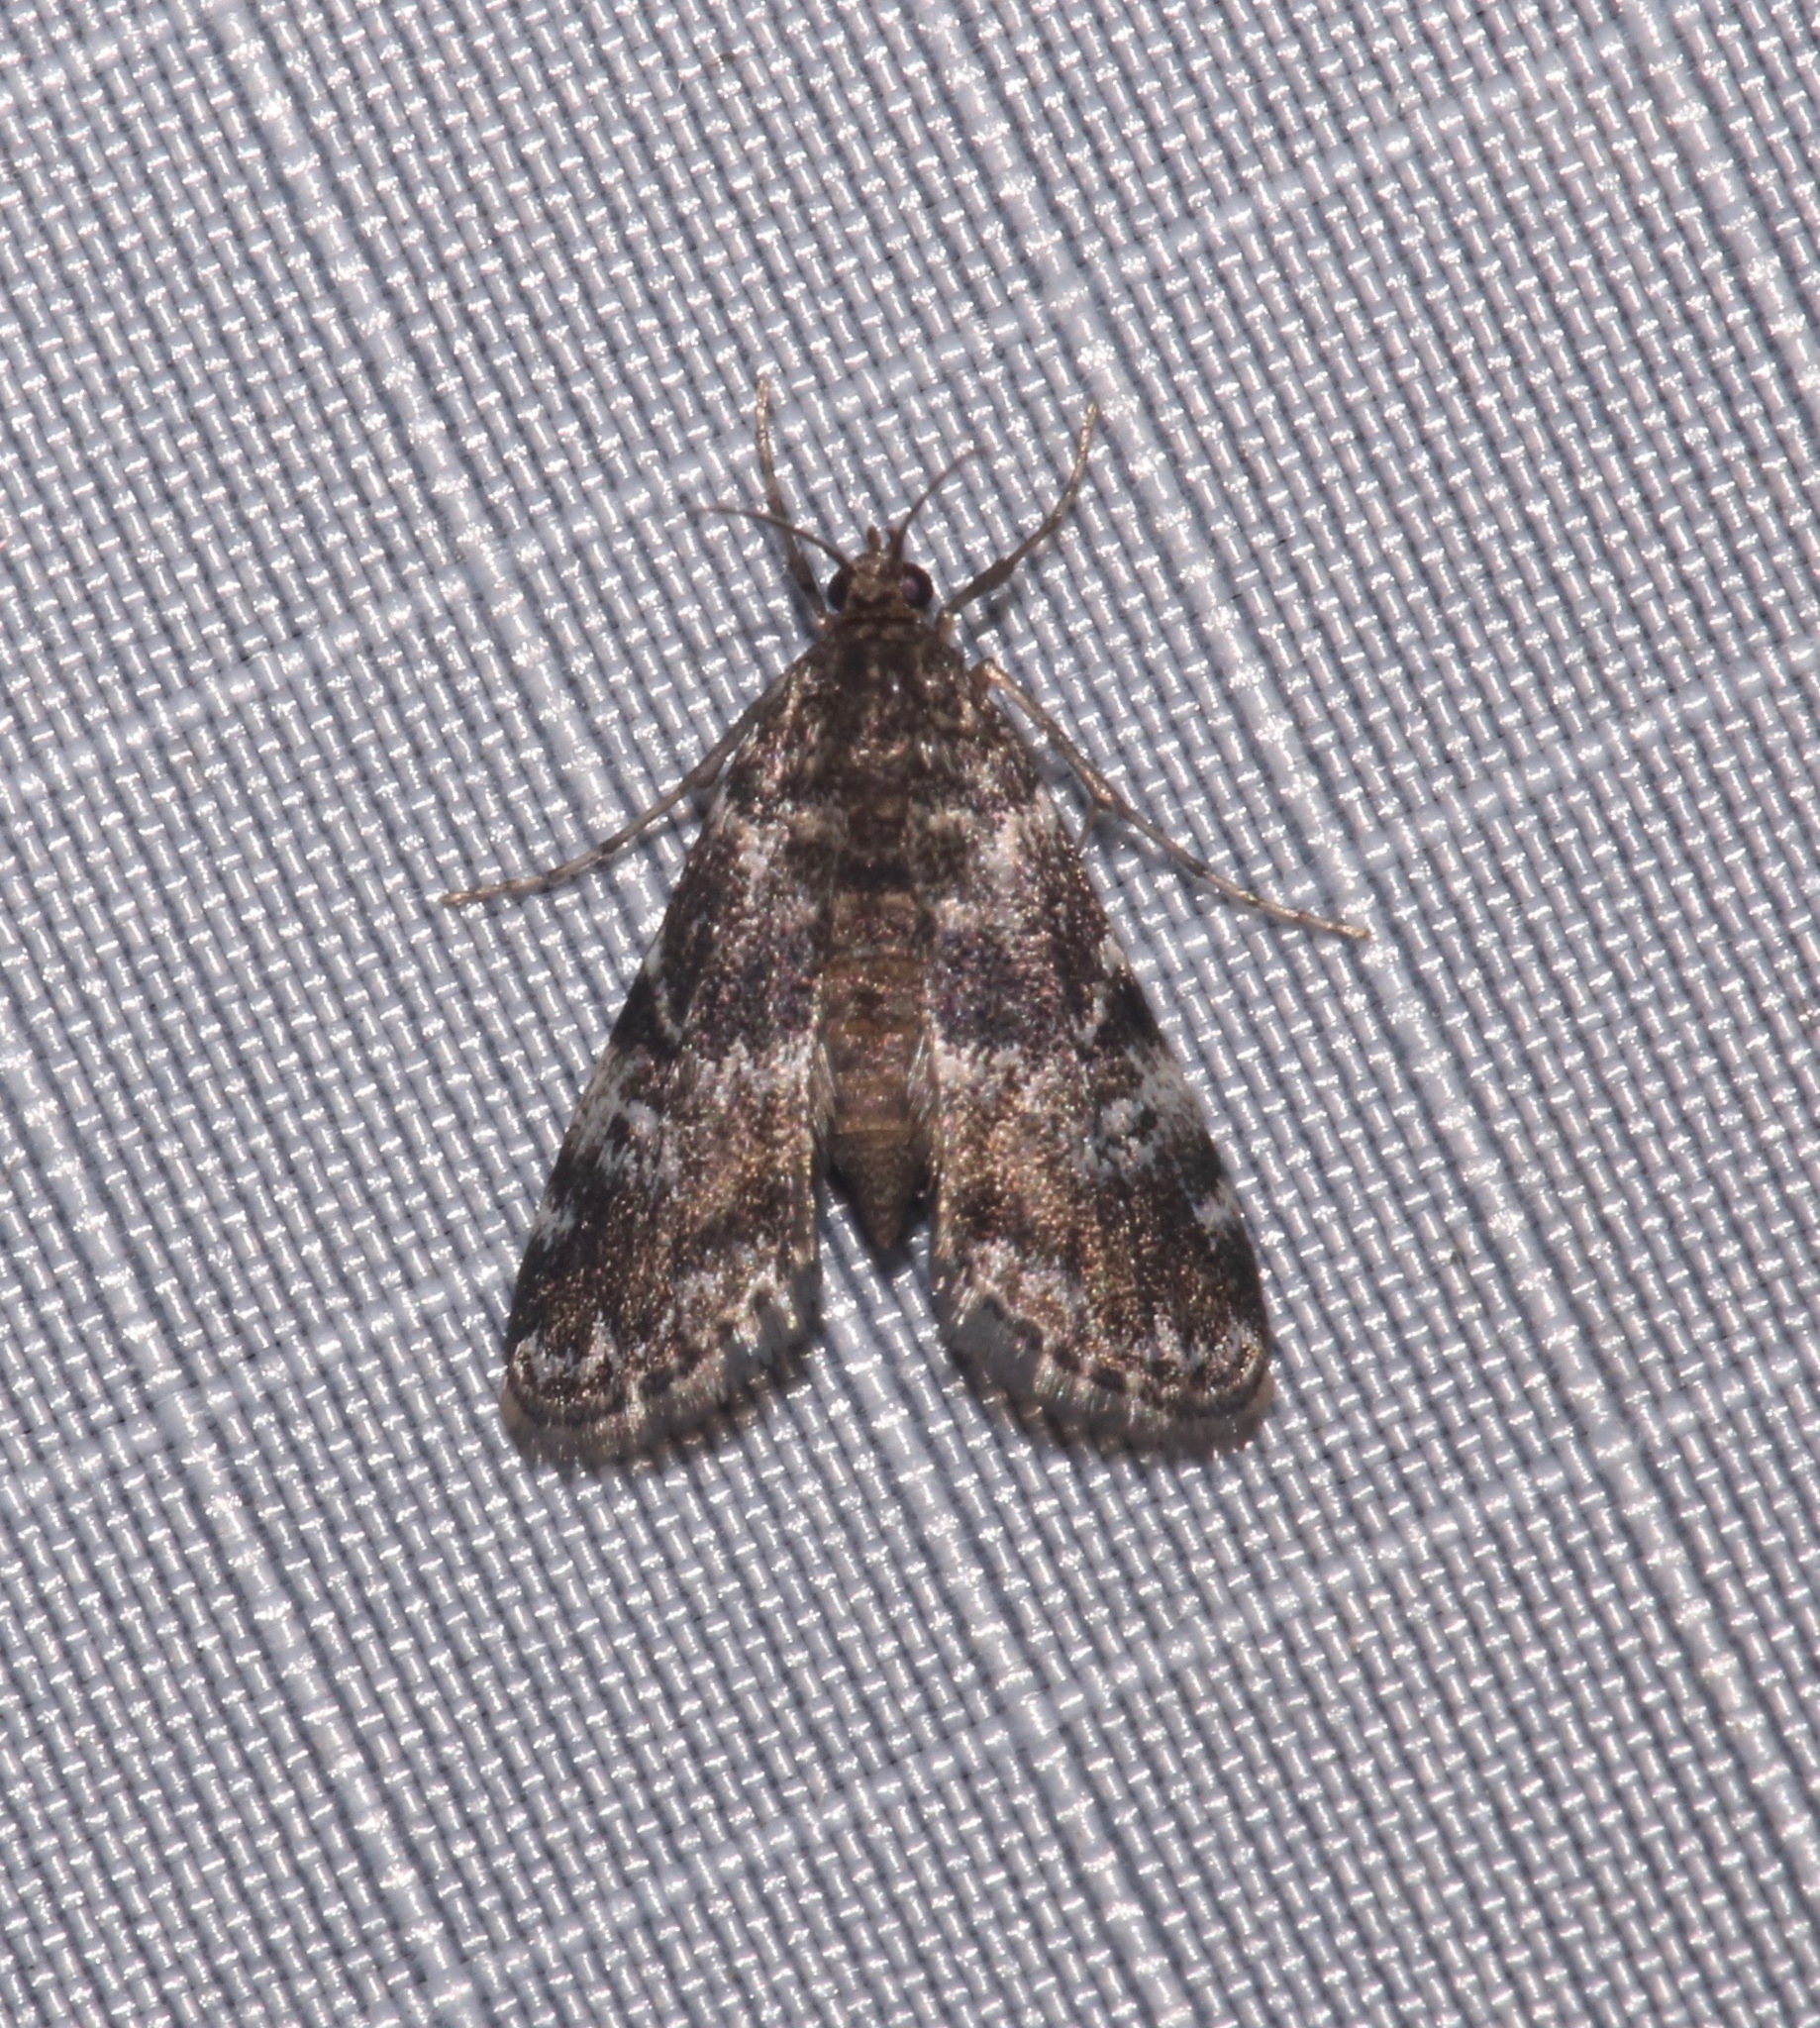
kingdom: Animalia
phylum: Arthropoda
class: Insecta
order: Lepidoptera
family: Crambidae
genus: Elophila
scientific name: Elophila obliteralis
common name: Waterlily leafcutter moth
